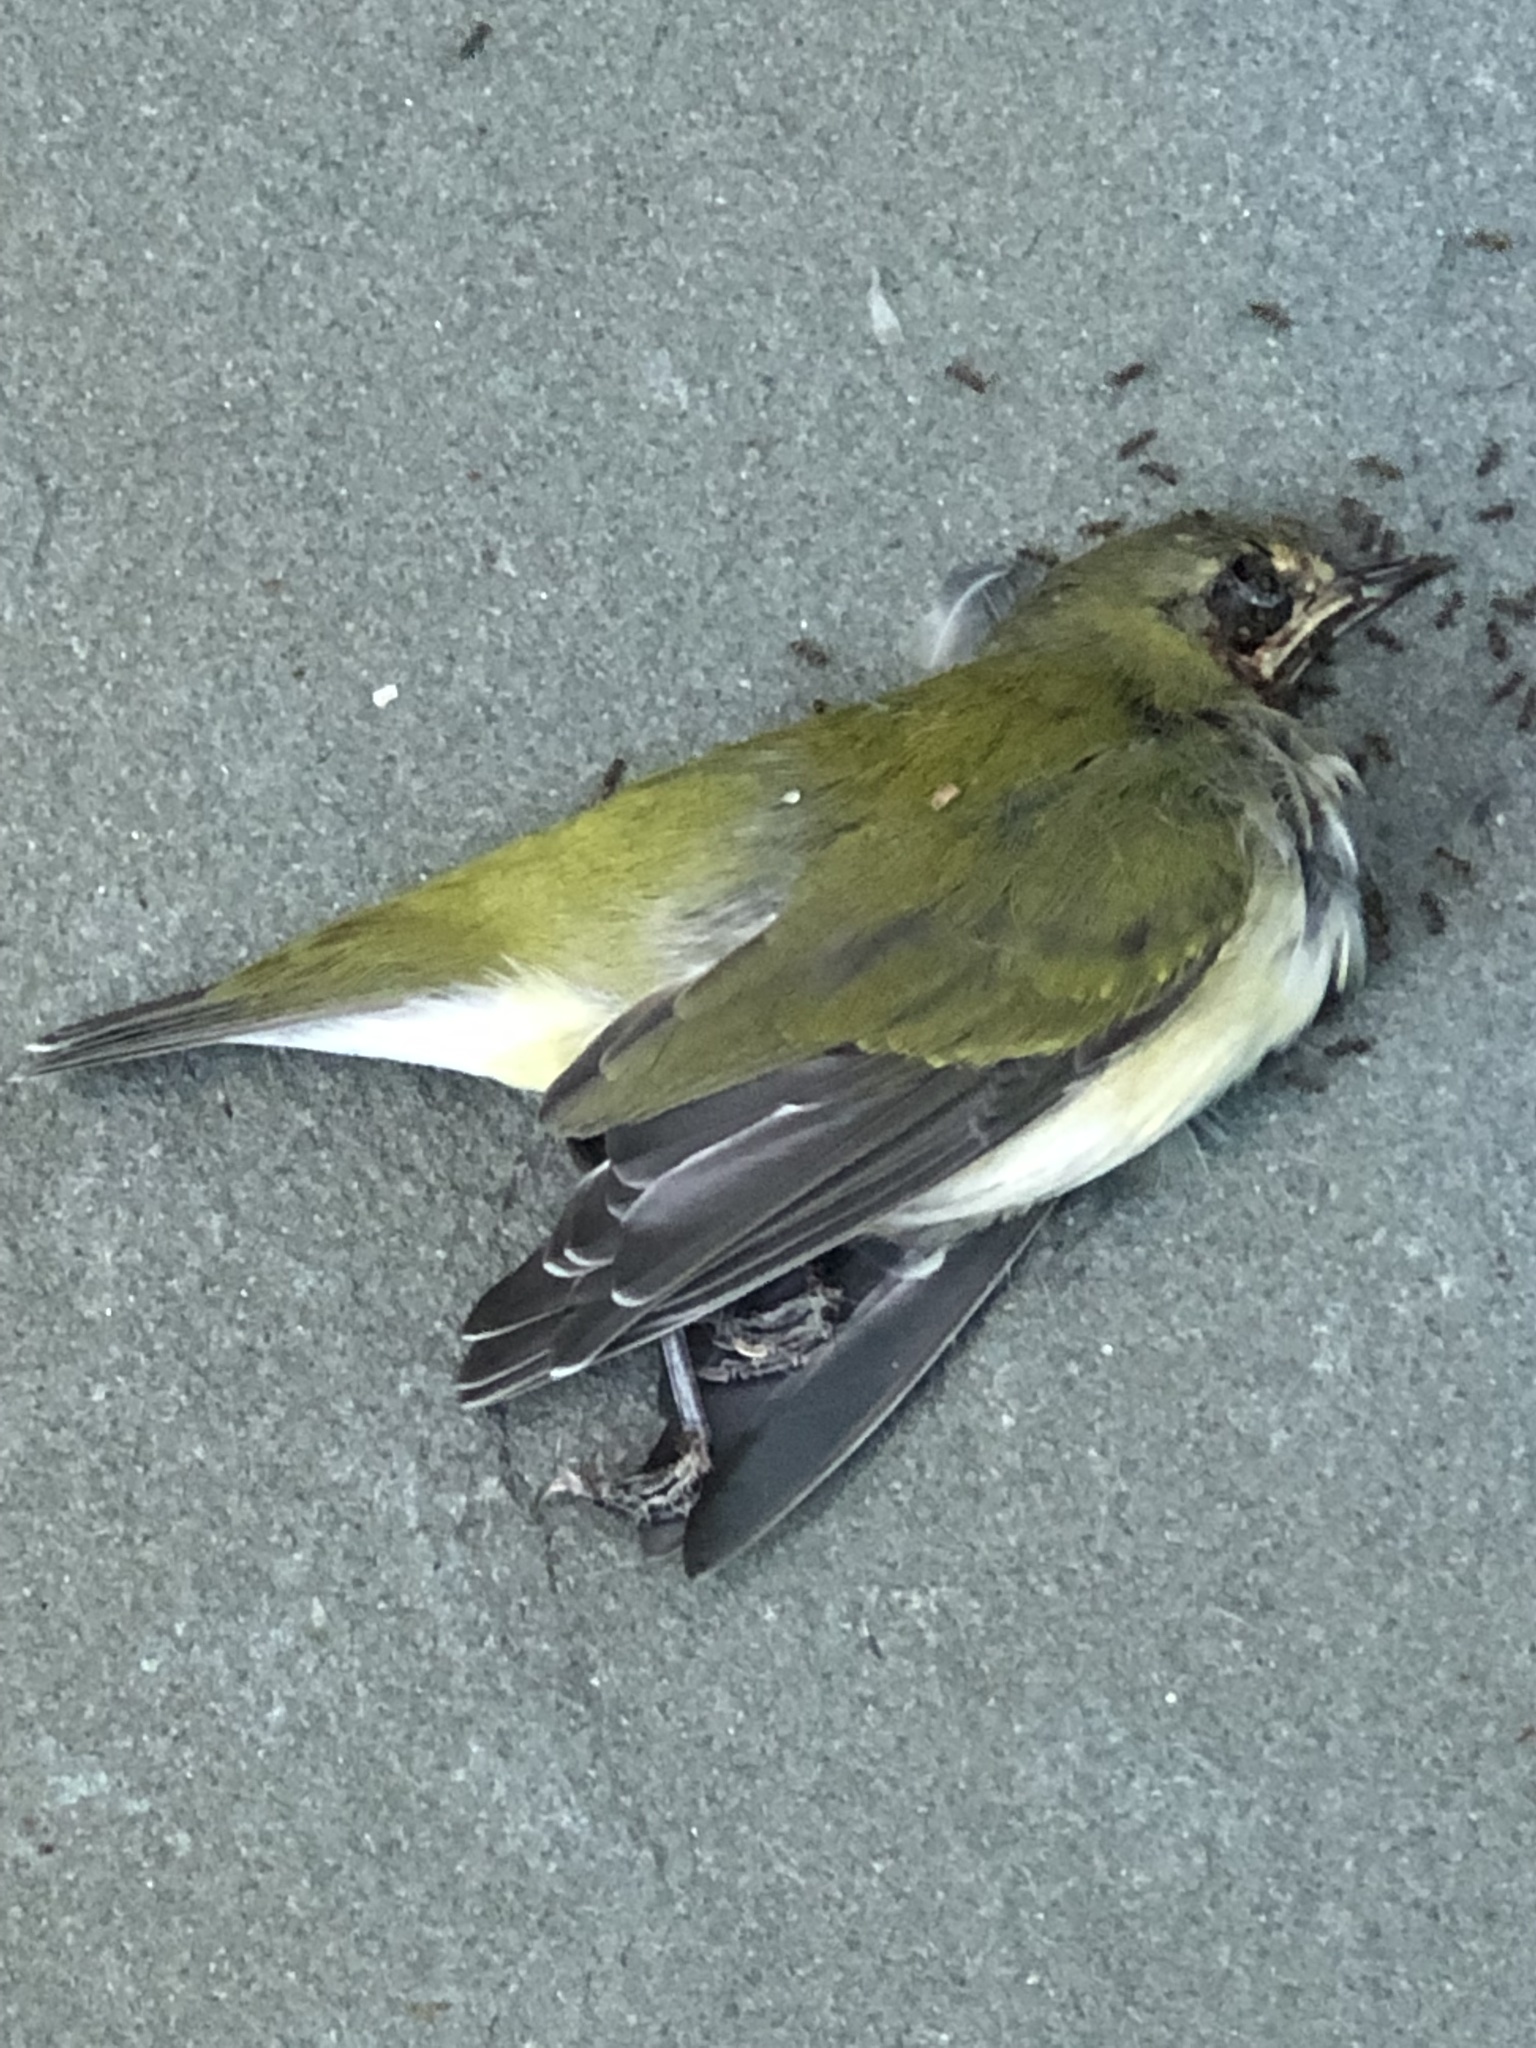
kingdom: Animalia
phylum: Chordata
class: Aves
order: Passeriformes
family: Parulidae
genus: Leiothlypis
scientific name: Leiothlypis peregrina
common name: Tennessee warbler
